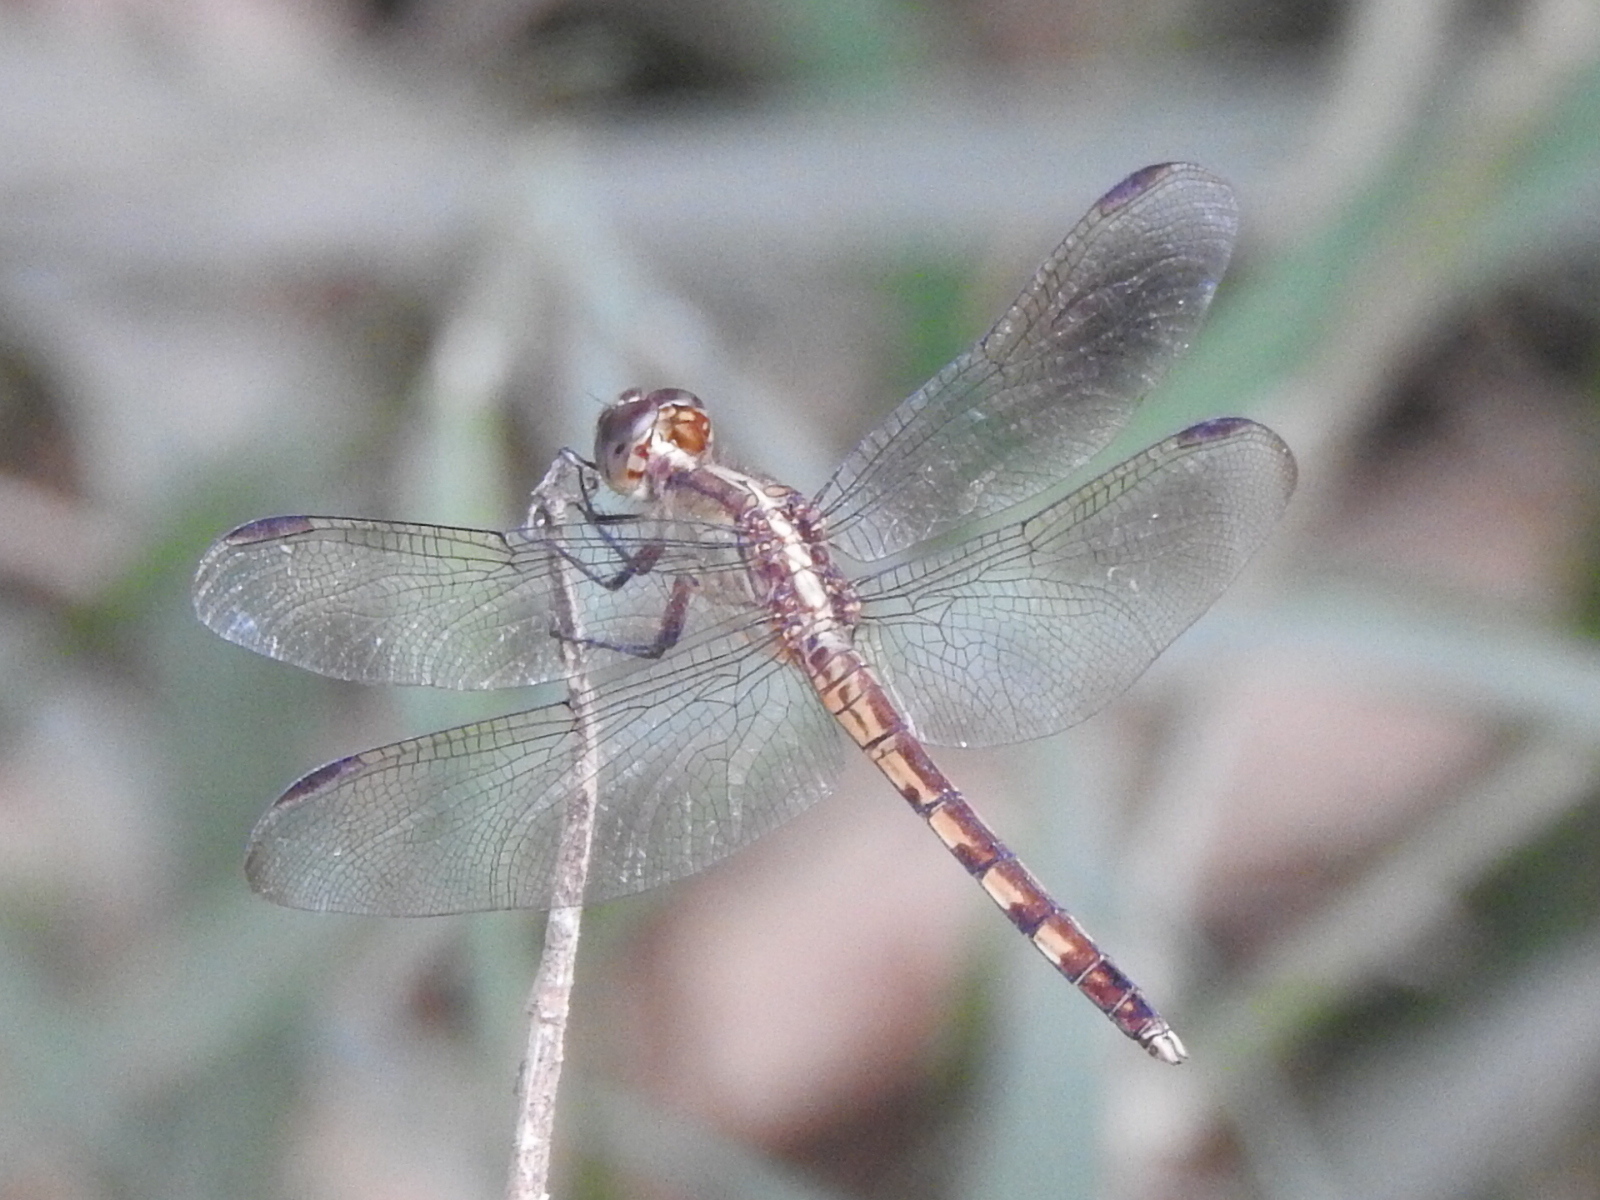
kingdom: Animalia
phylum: Arthropoda
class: Insecta
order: Odonata
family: Libellulidae
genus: Erythrodiplax
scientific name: Erythrodiplax umbrata
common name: Band-winged dragonlet
